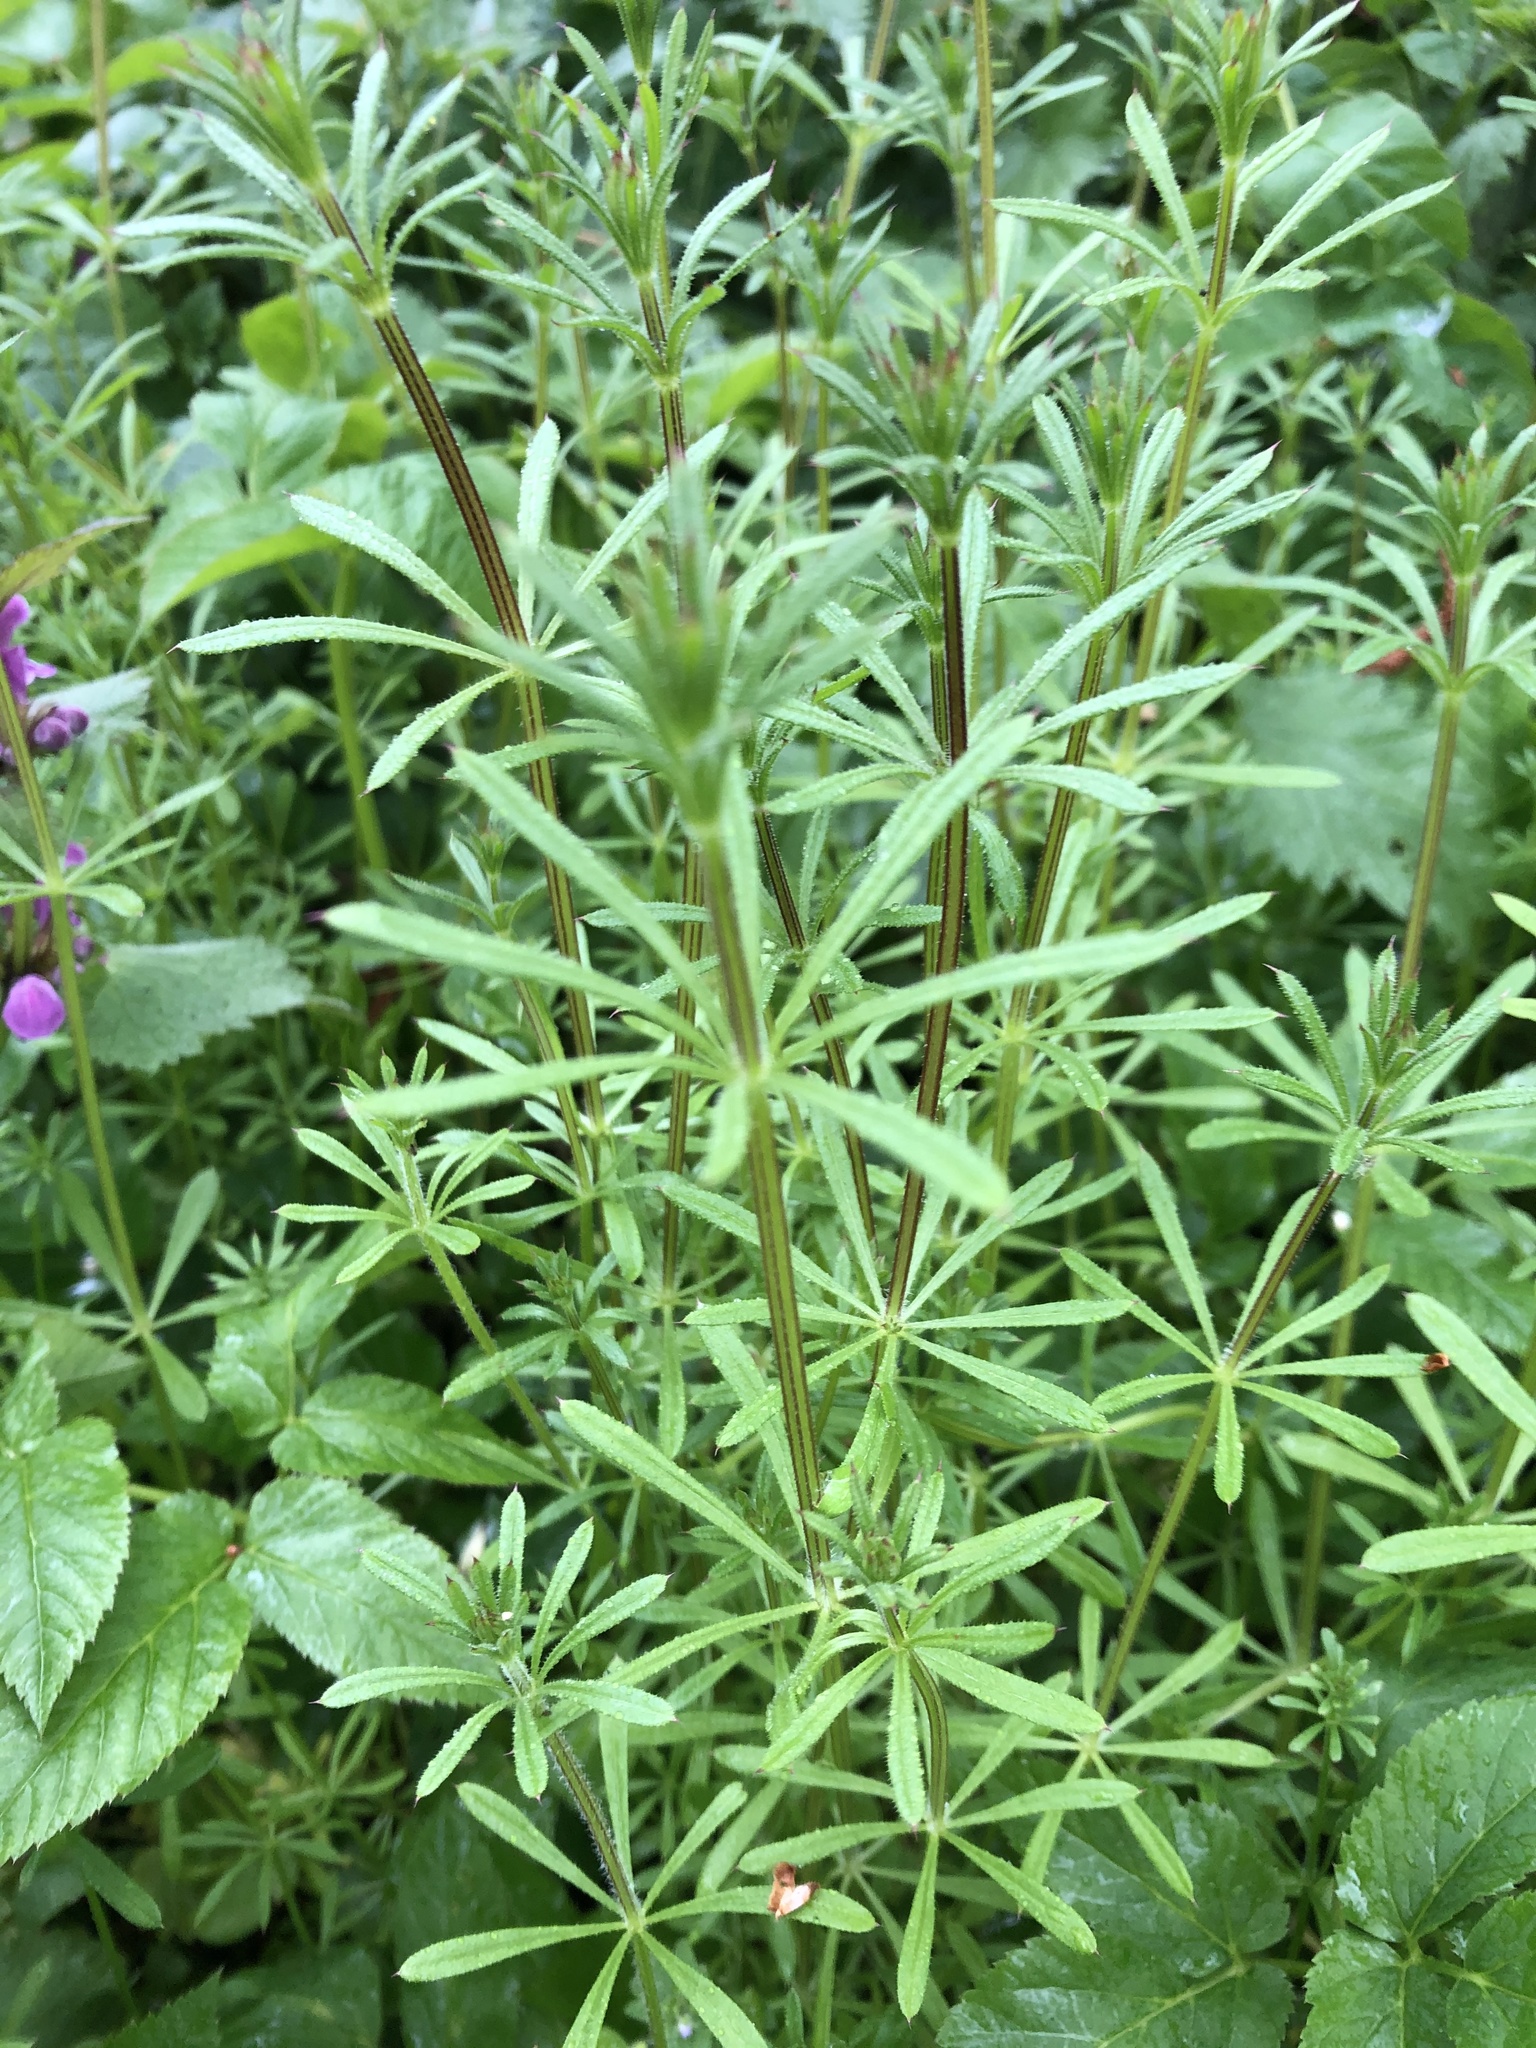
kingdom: Plantae
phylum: Tracheophyta
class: Magnoliopsida
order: Gentianales
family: Rubiaceae
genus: Galium
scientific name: Galium aparine
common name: Cleavers
